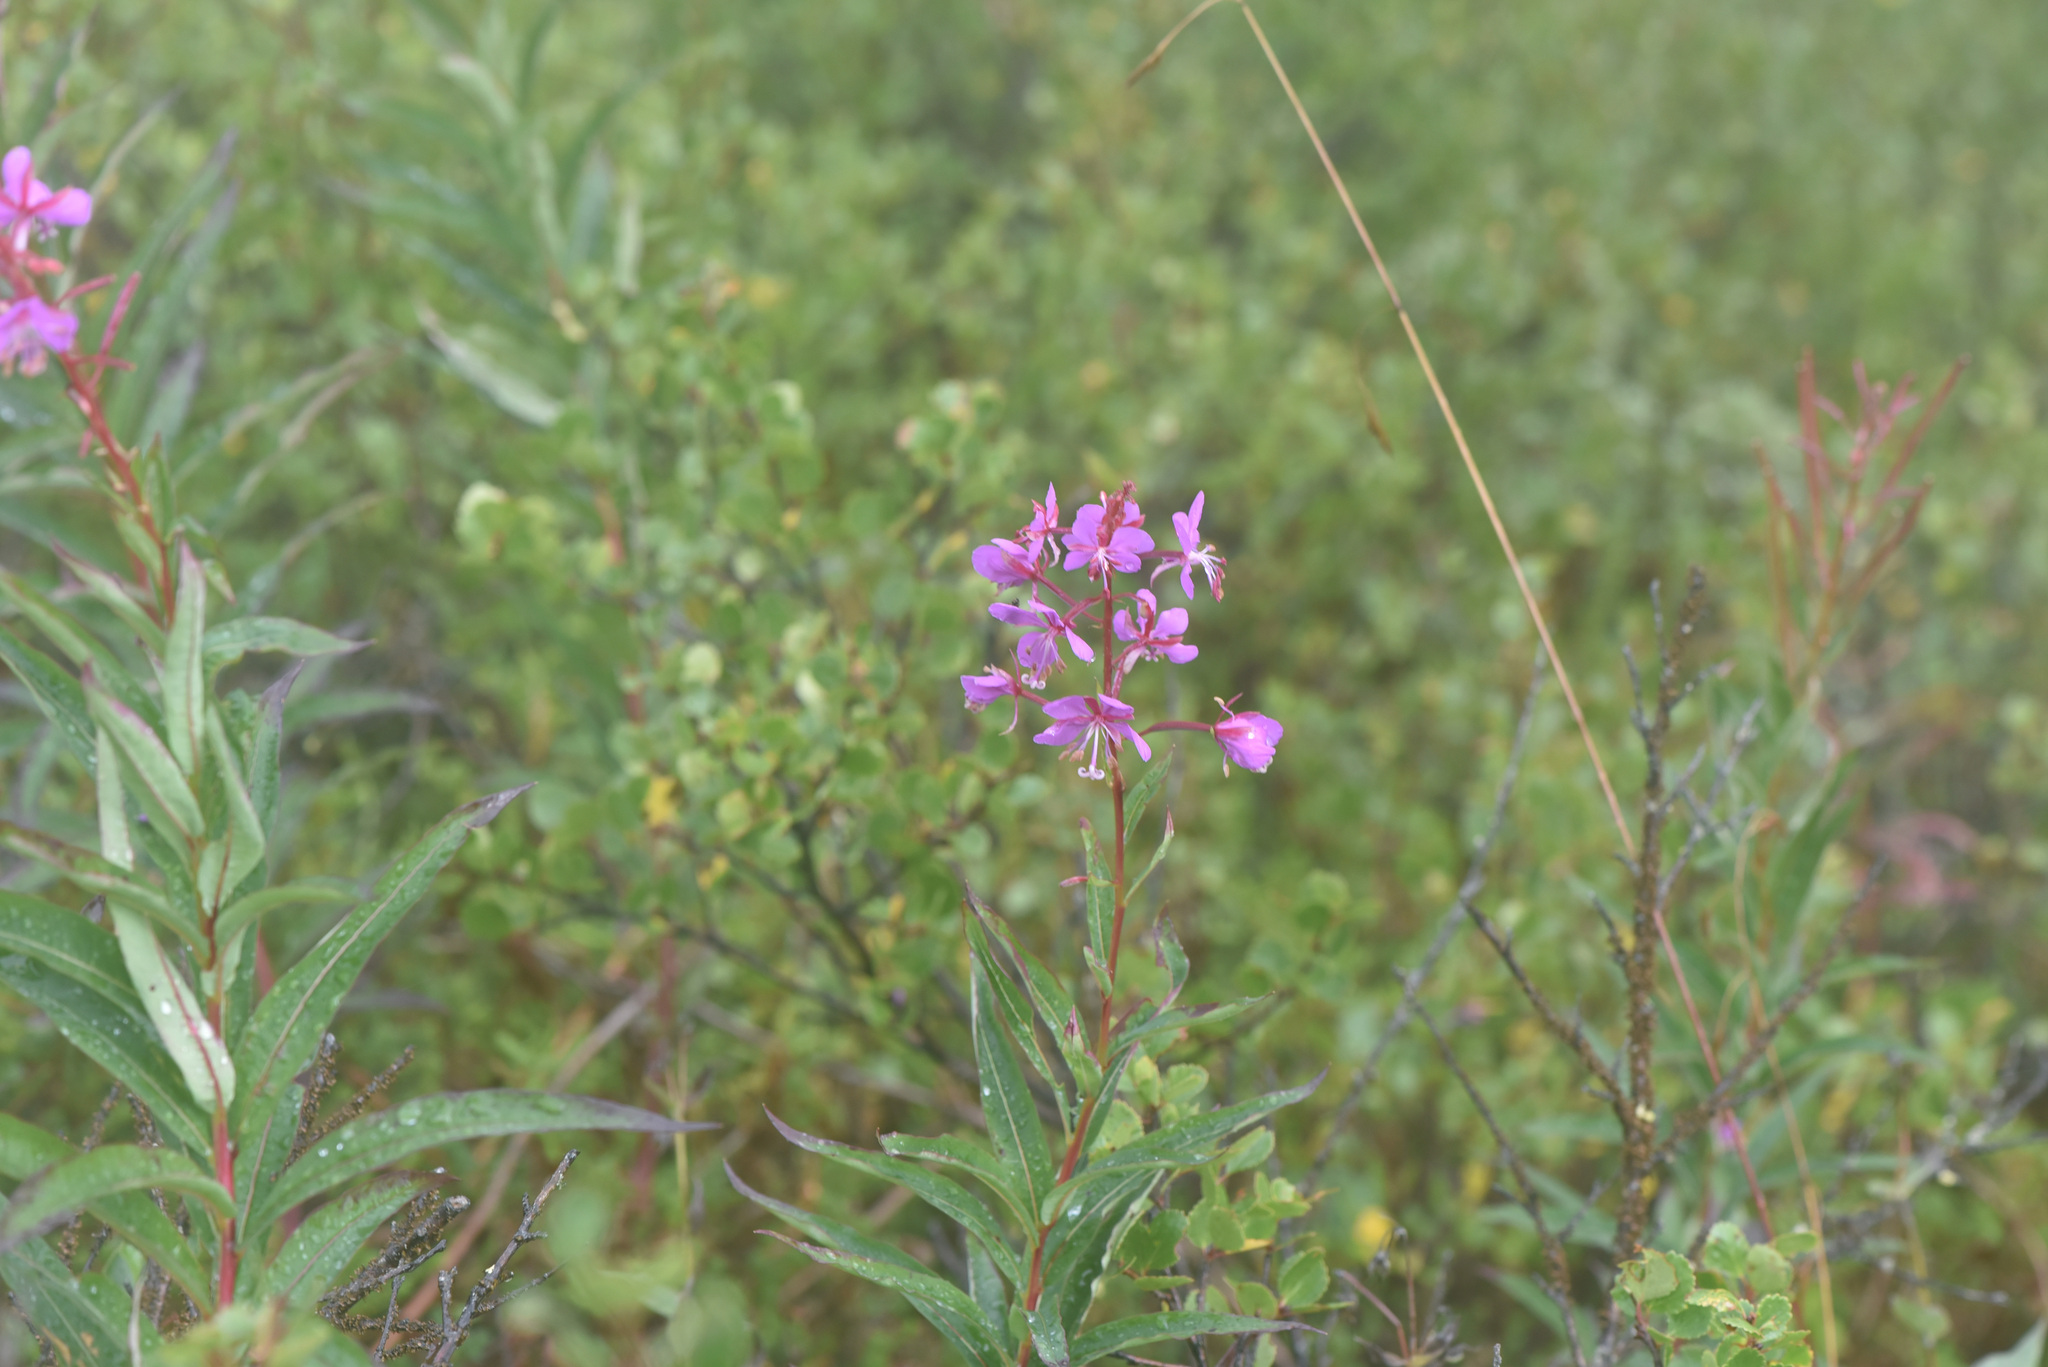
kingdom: Plantae
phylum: Tracheophyta
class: Magnoliopsida
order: Myrtales
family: Onagraceae
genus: Chamaenerion
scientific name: Chamaenerion angustifolium
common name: Fireweed
